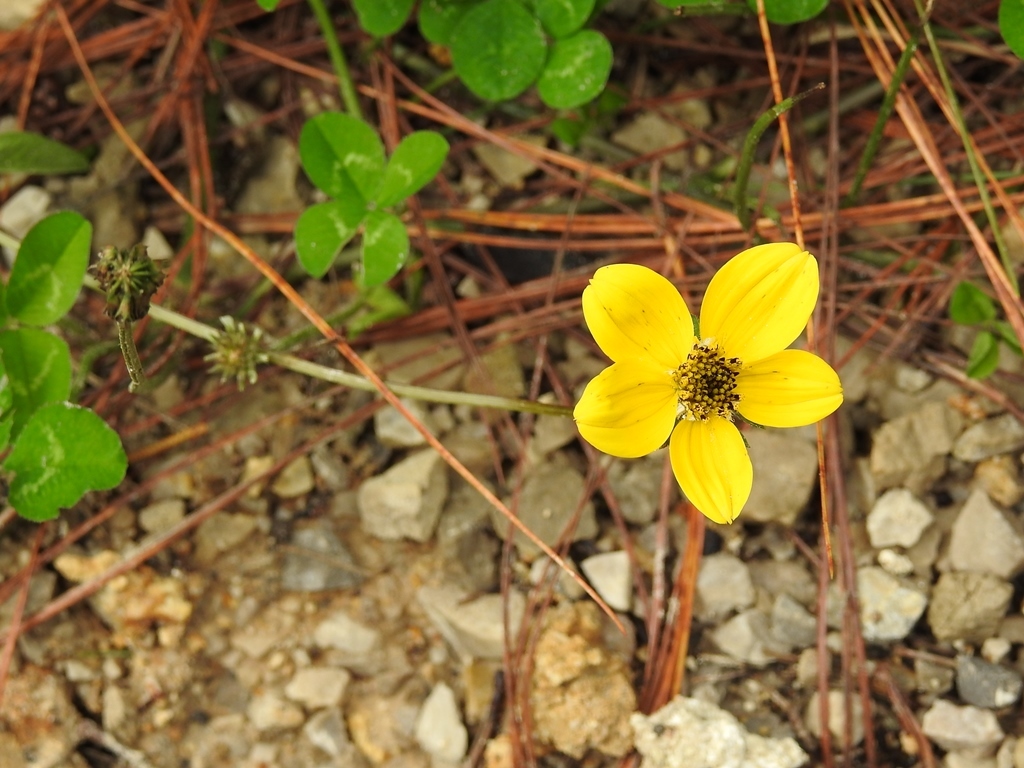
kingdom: Plantae
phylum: Tracheophyta
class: Magnoliopsida
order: Asterales
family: Asteraceae
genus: Bidens
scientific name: Bidens triplinervia
